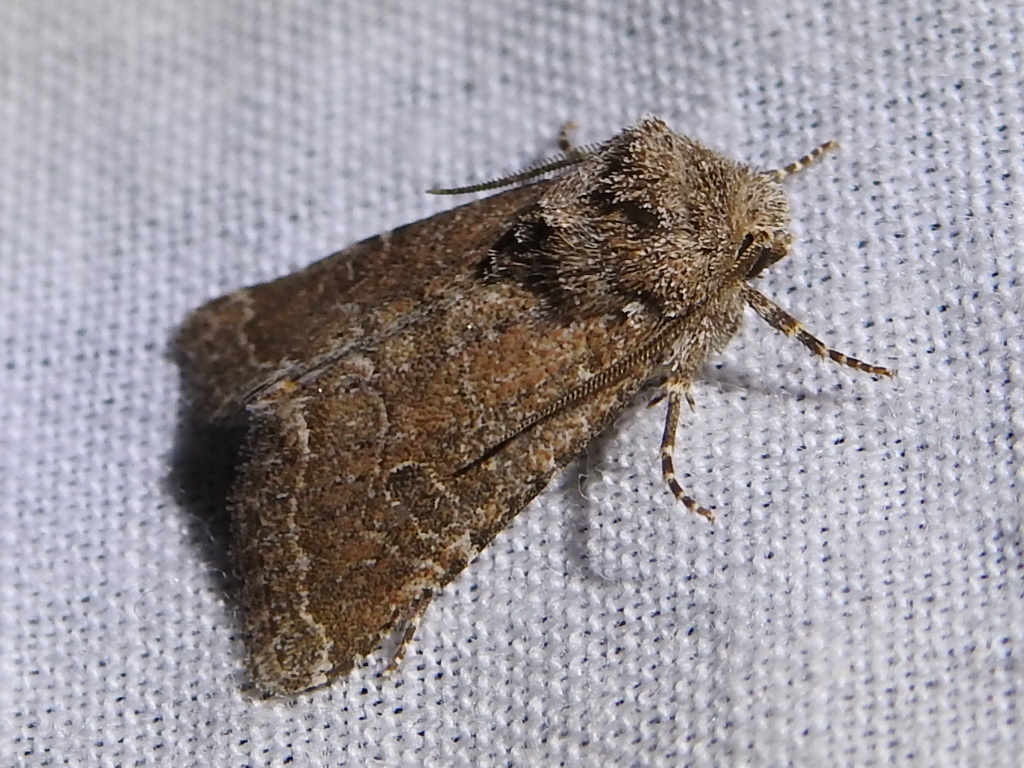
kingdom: Animalia
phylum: Arthropoda
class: Insecta
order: Lepidoptera
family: Noctuidae
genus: Trichopolia
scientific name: Trichopolia
